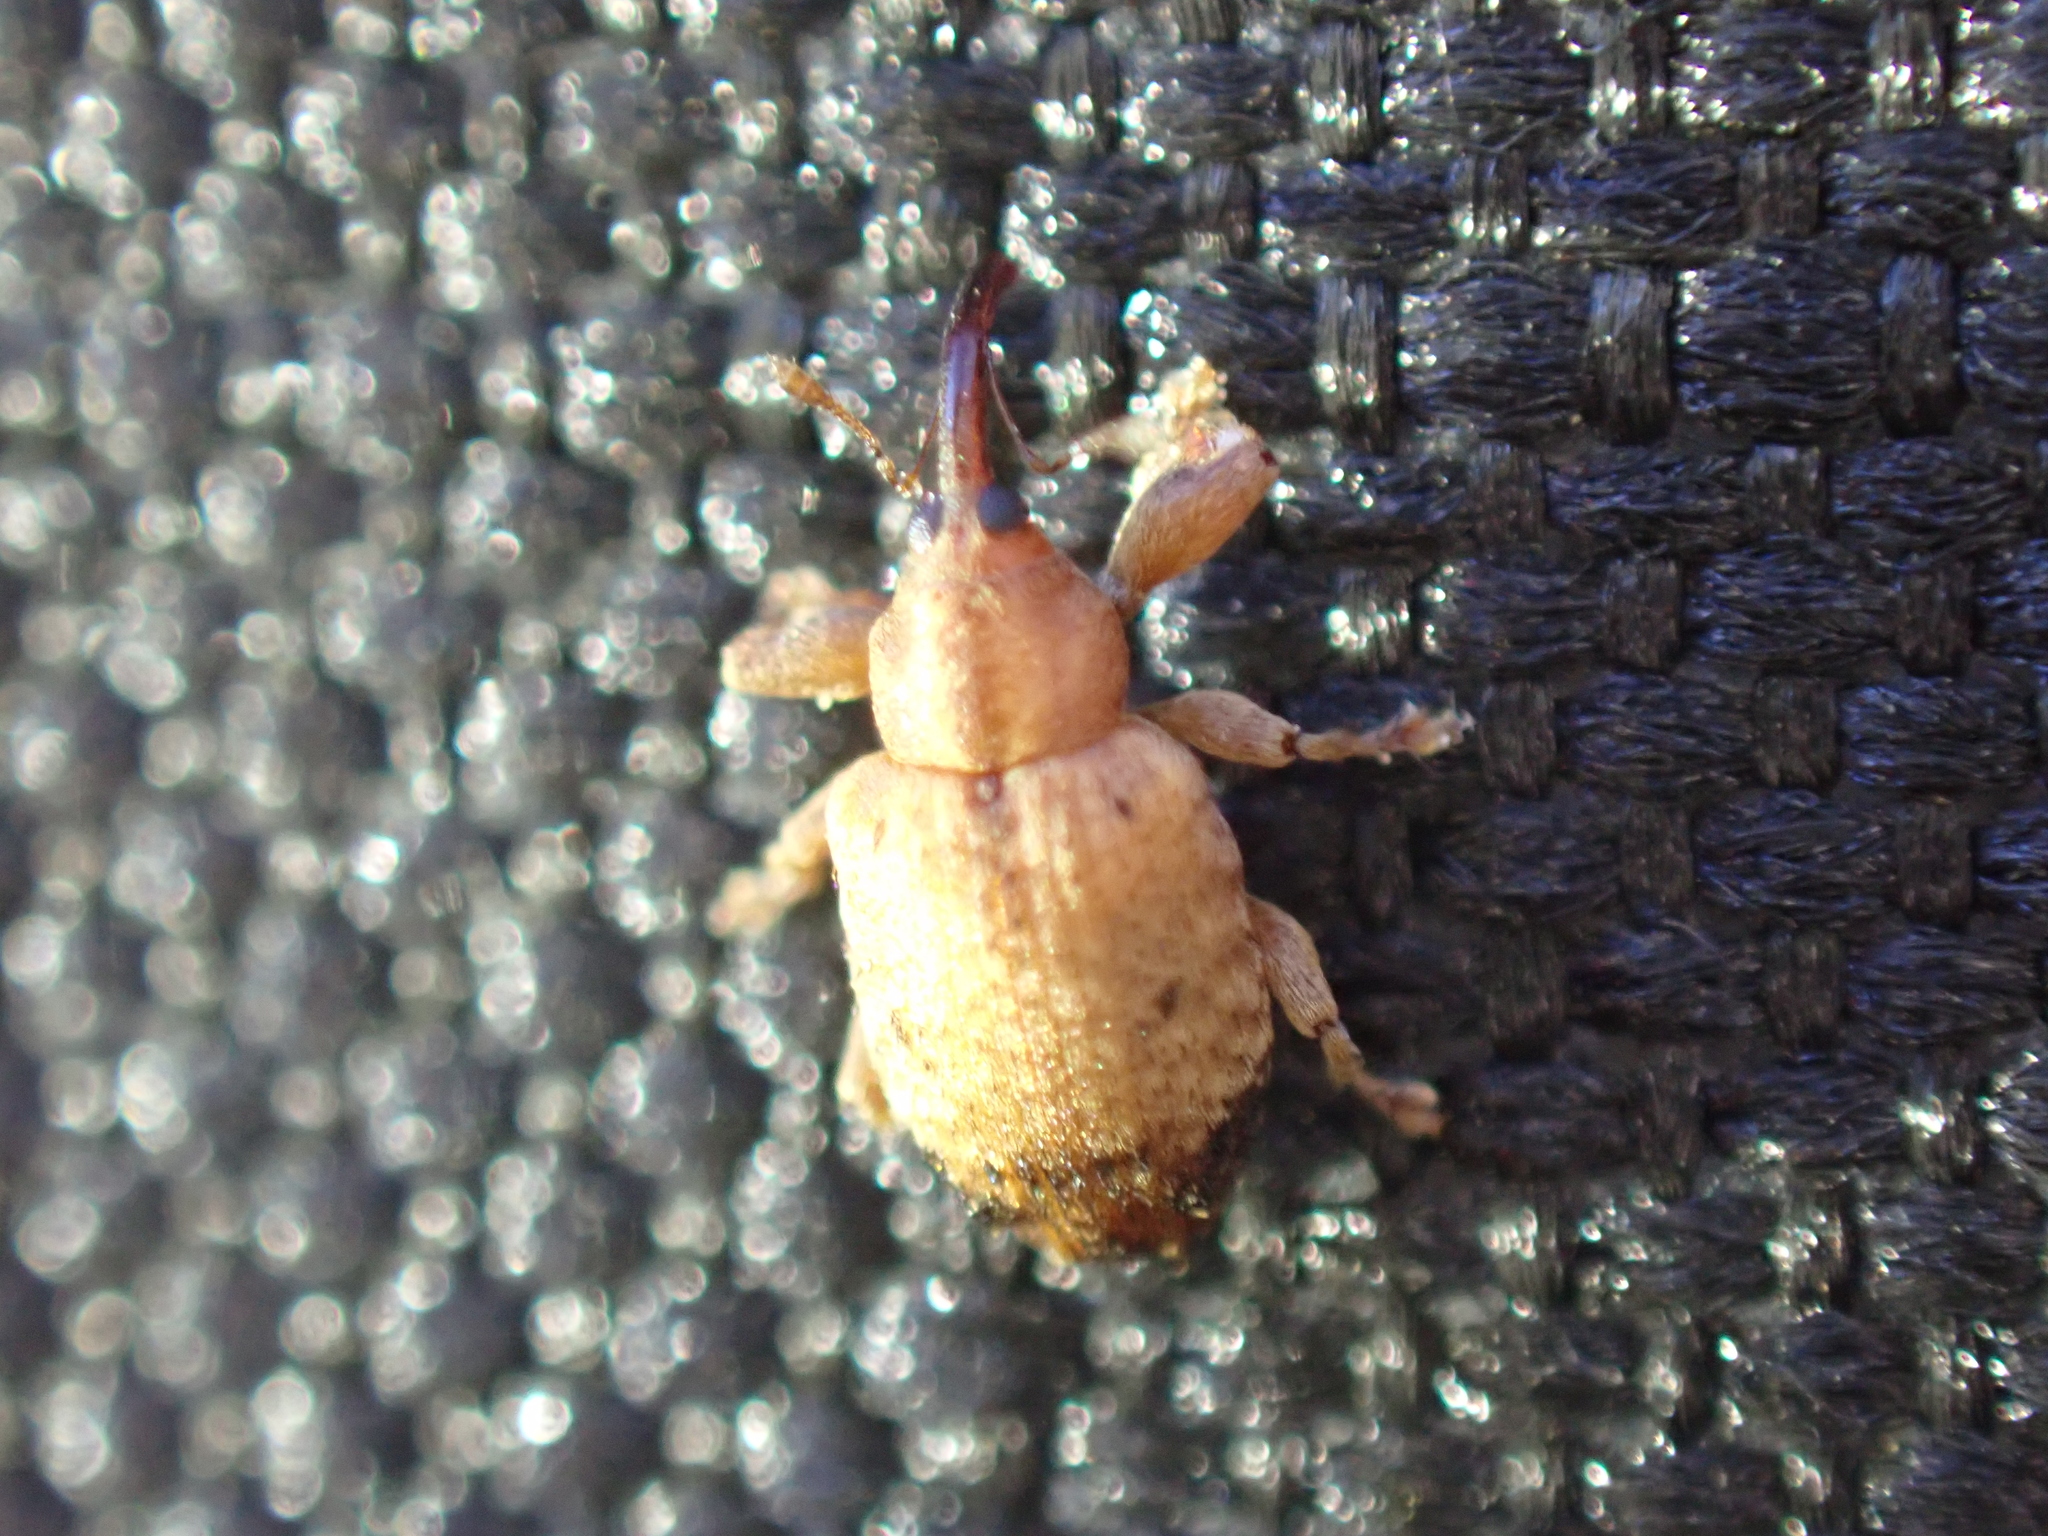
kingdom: Animalia
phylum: Arthropoda
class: Insecta
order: Coleoptera
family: Curculionidae
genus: Ochyromera
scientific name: Ochyromera ligustri
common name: Weevil
